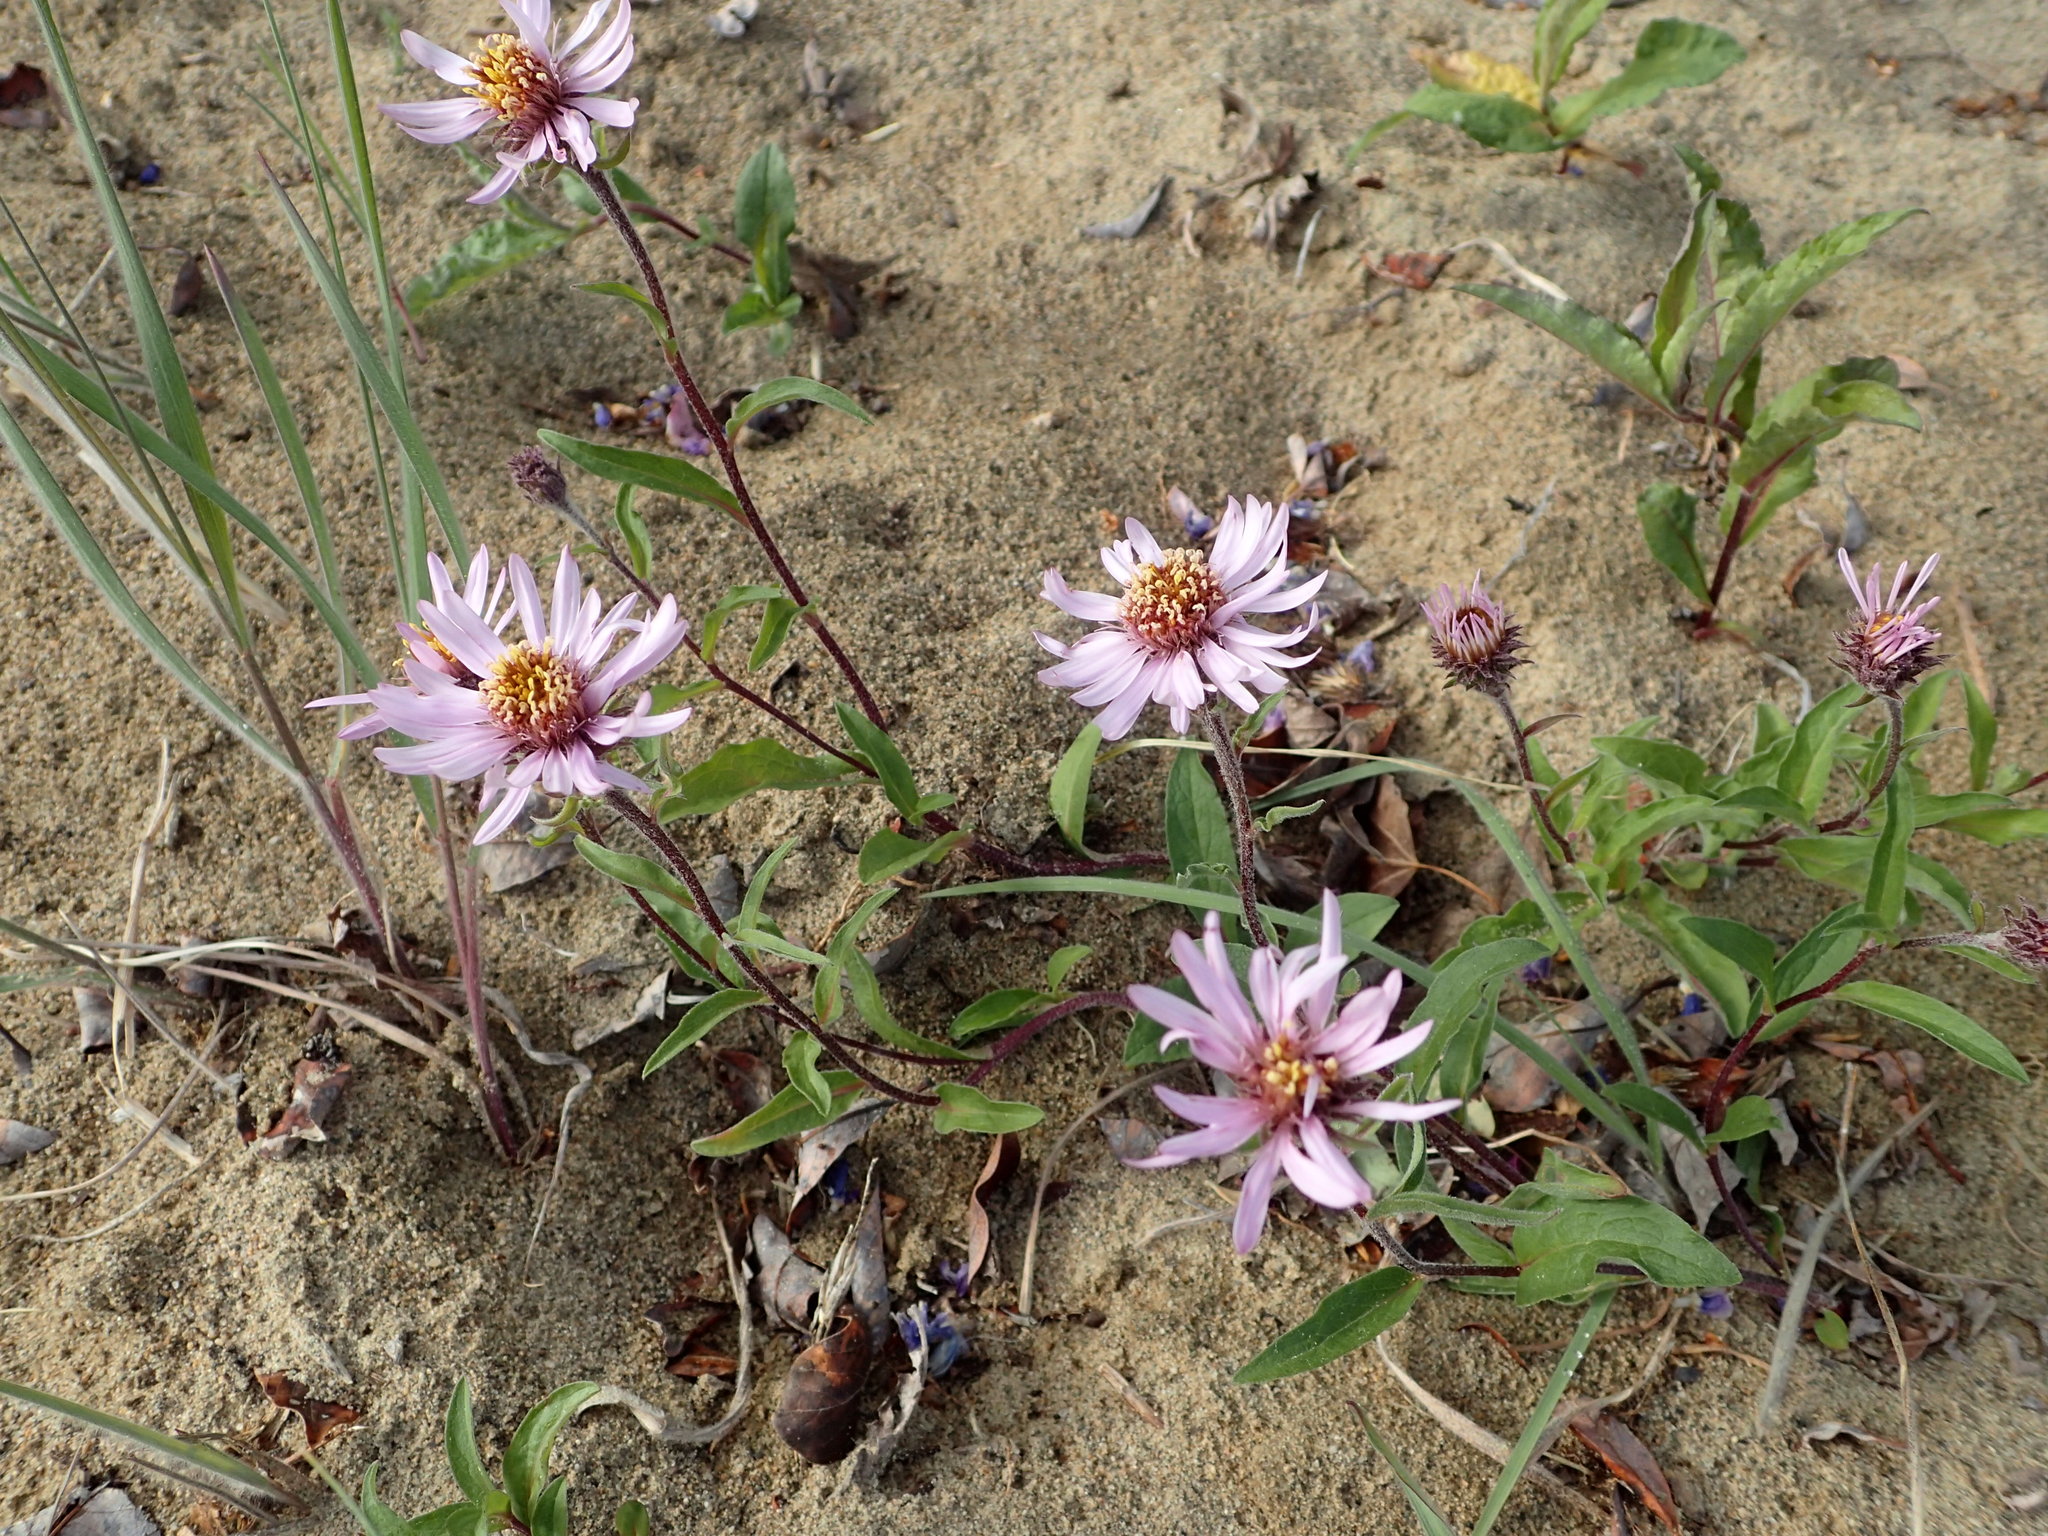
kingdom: Plantae
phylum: Tracheophyta
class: Magnoliopsida
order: Asterales
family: Asteraceae
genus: Eurybia
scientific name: Eurybia sibirica
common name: Arctic aster
